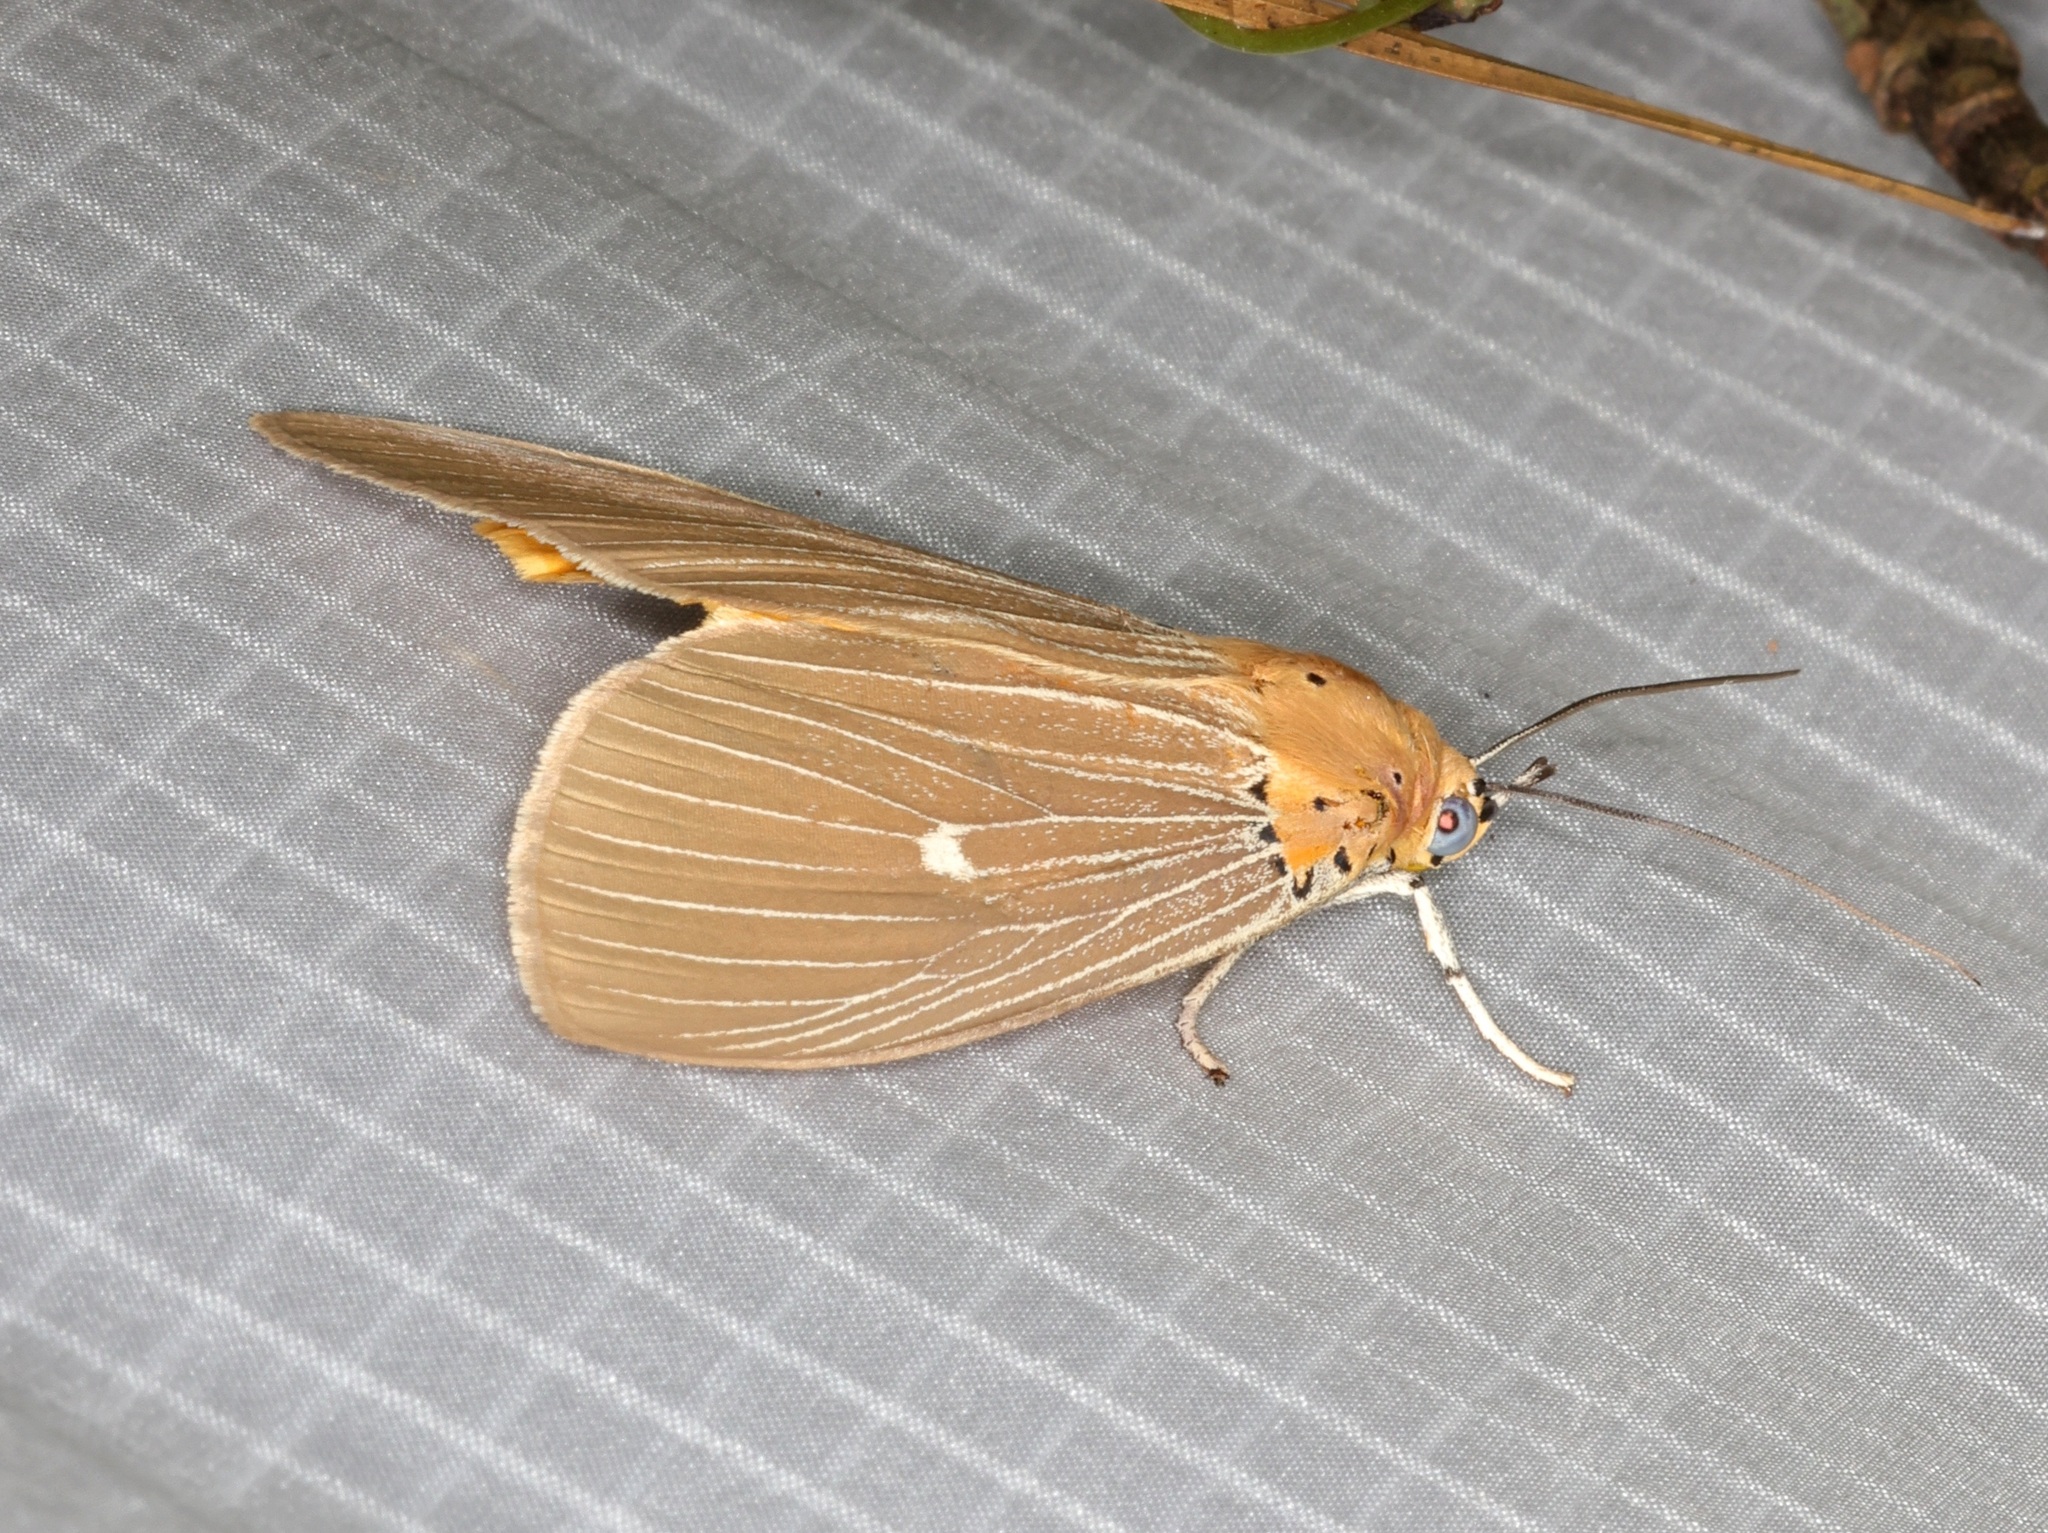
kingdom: Animalia
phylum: Arthropoda
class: Insecta
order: Lepidoptera
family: Erebidae
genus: Asota
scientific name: Asota caricae
